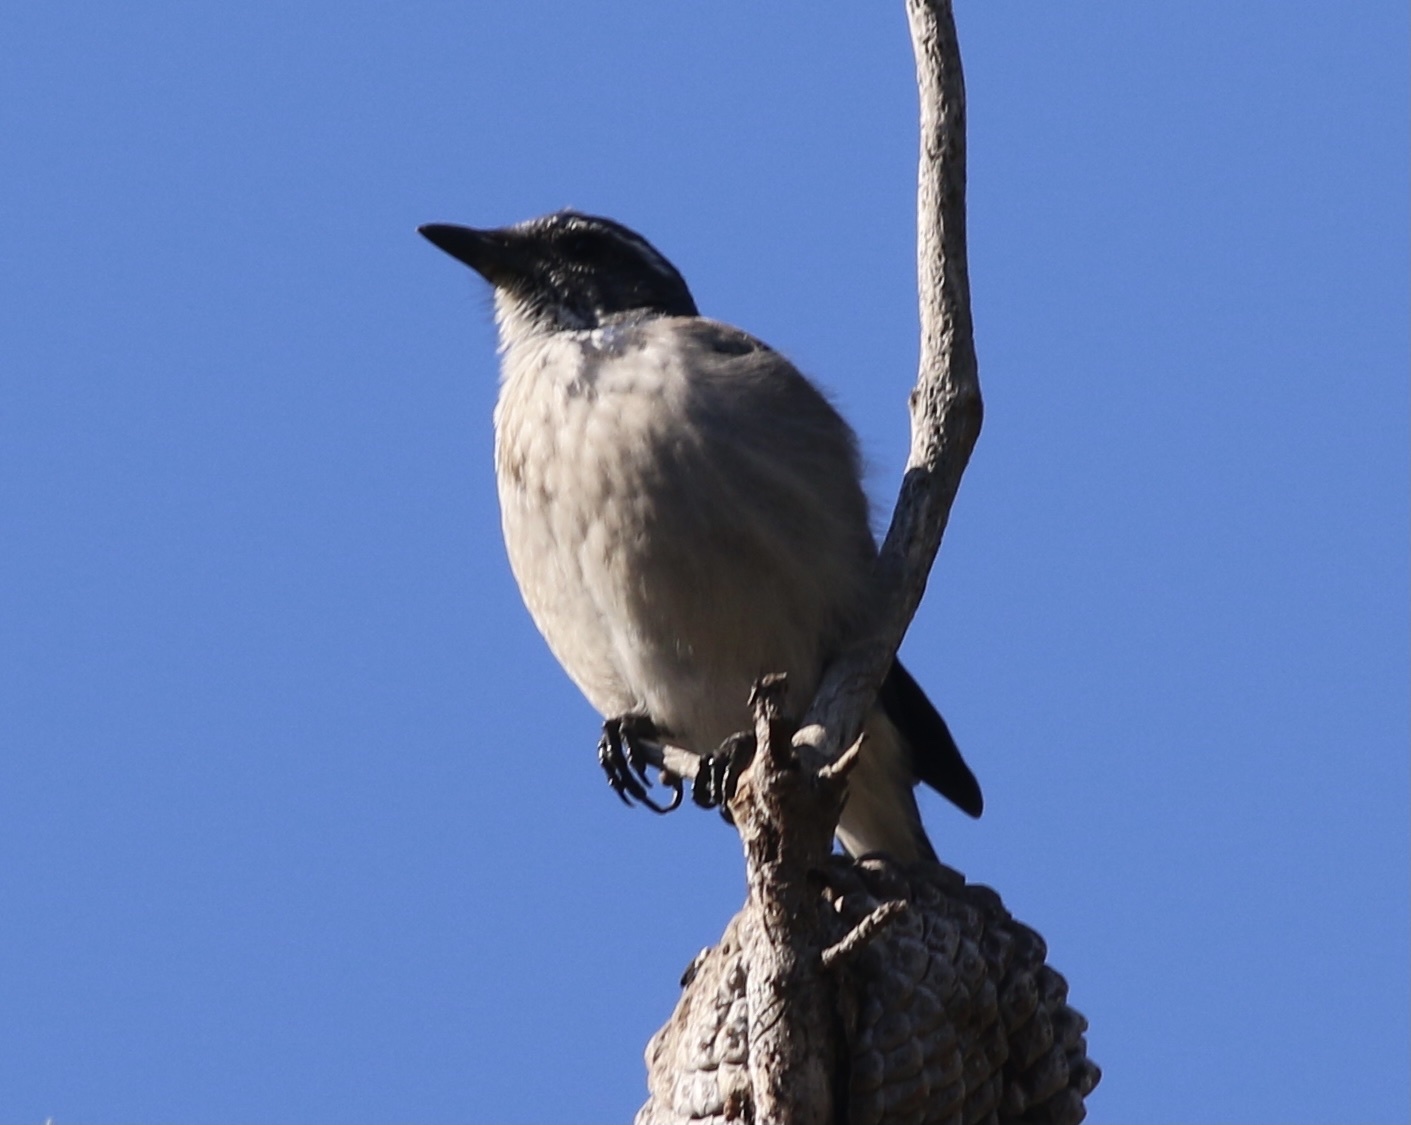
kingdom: Animalia
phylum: Chordata
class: Aves
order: Passeriformes
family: Corvidae
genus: Aphelocoma
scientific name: Aphelocoma californica
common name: California scrub-jay
